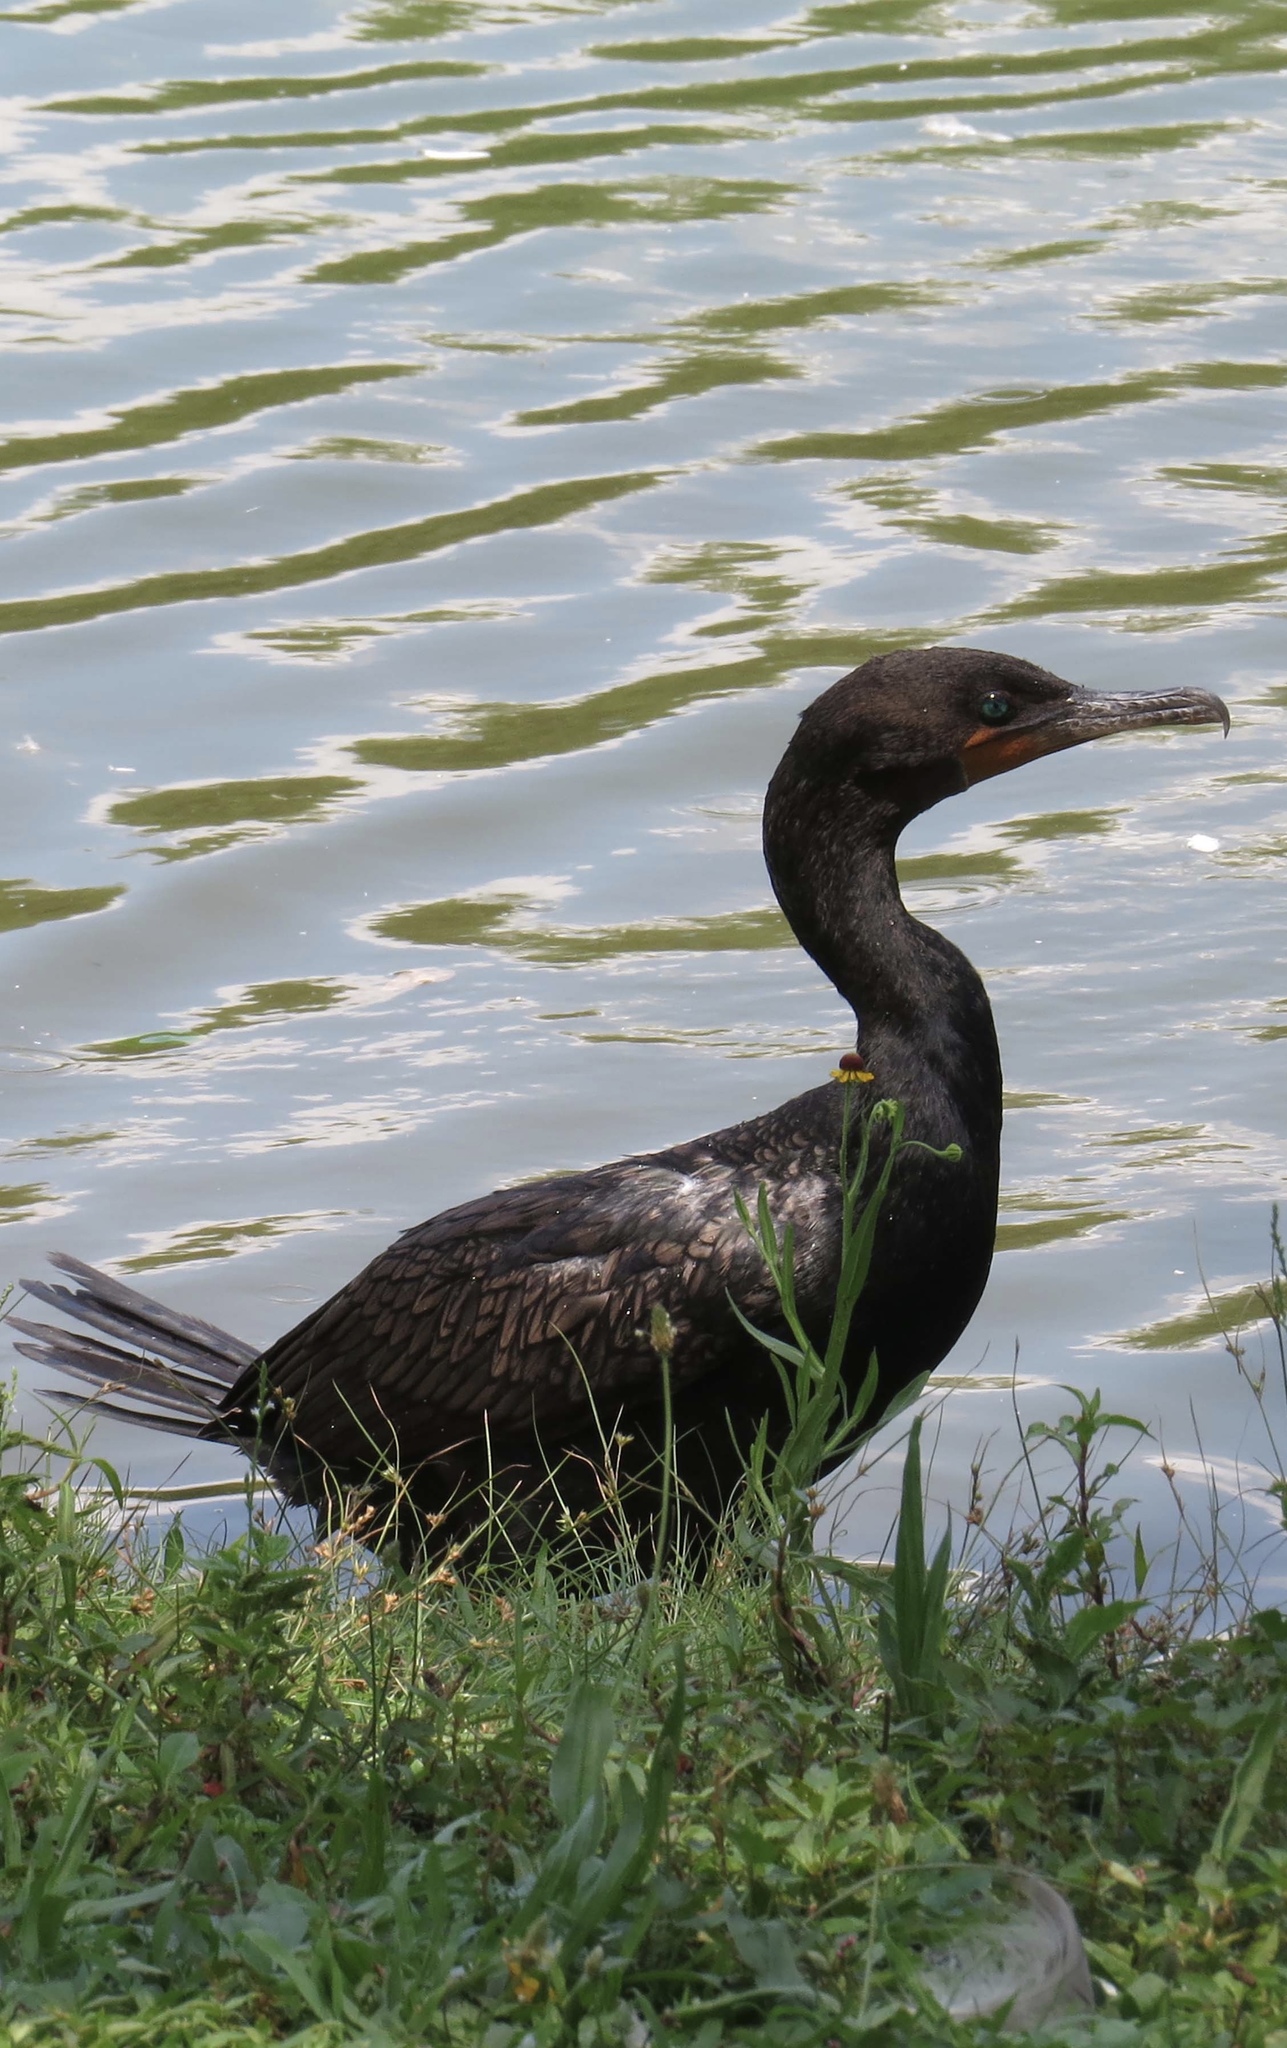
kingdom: Animalia
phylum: Chordata
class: Aves
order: Suliformes
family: Phalacrocoracidae
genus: Phalacrocorax
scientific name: Phalacrocorax auritus
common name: Double-crested cormorant
